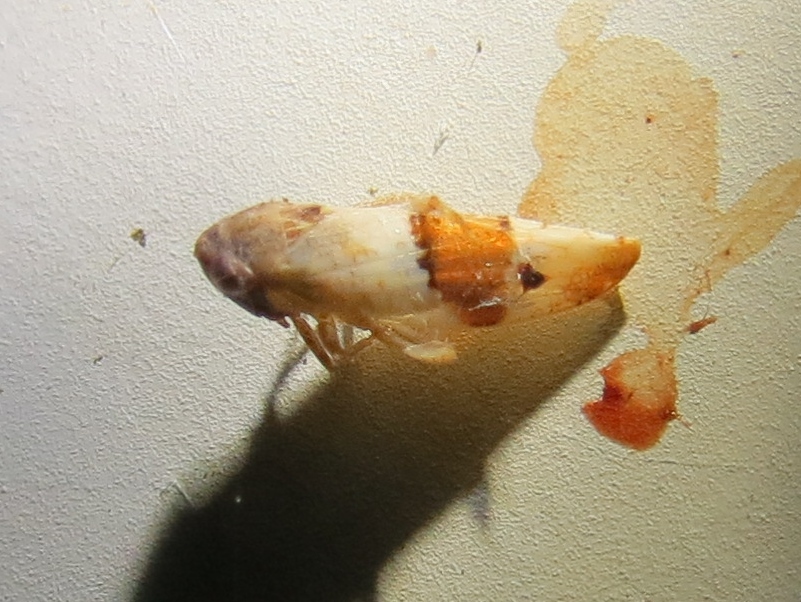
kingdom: Animalia
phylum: Arthropoda
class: Insecta
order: Hemiptera
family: Cicadellidae
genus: Norvellina
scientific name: Norvellina seminuda
